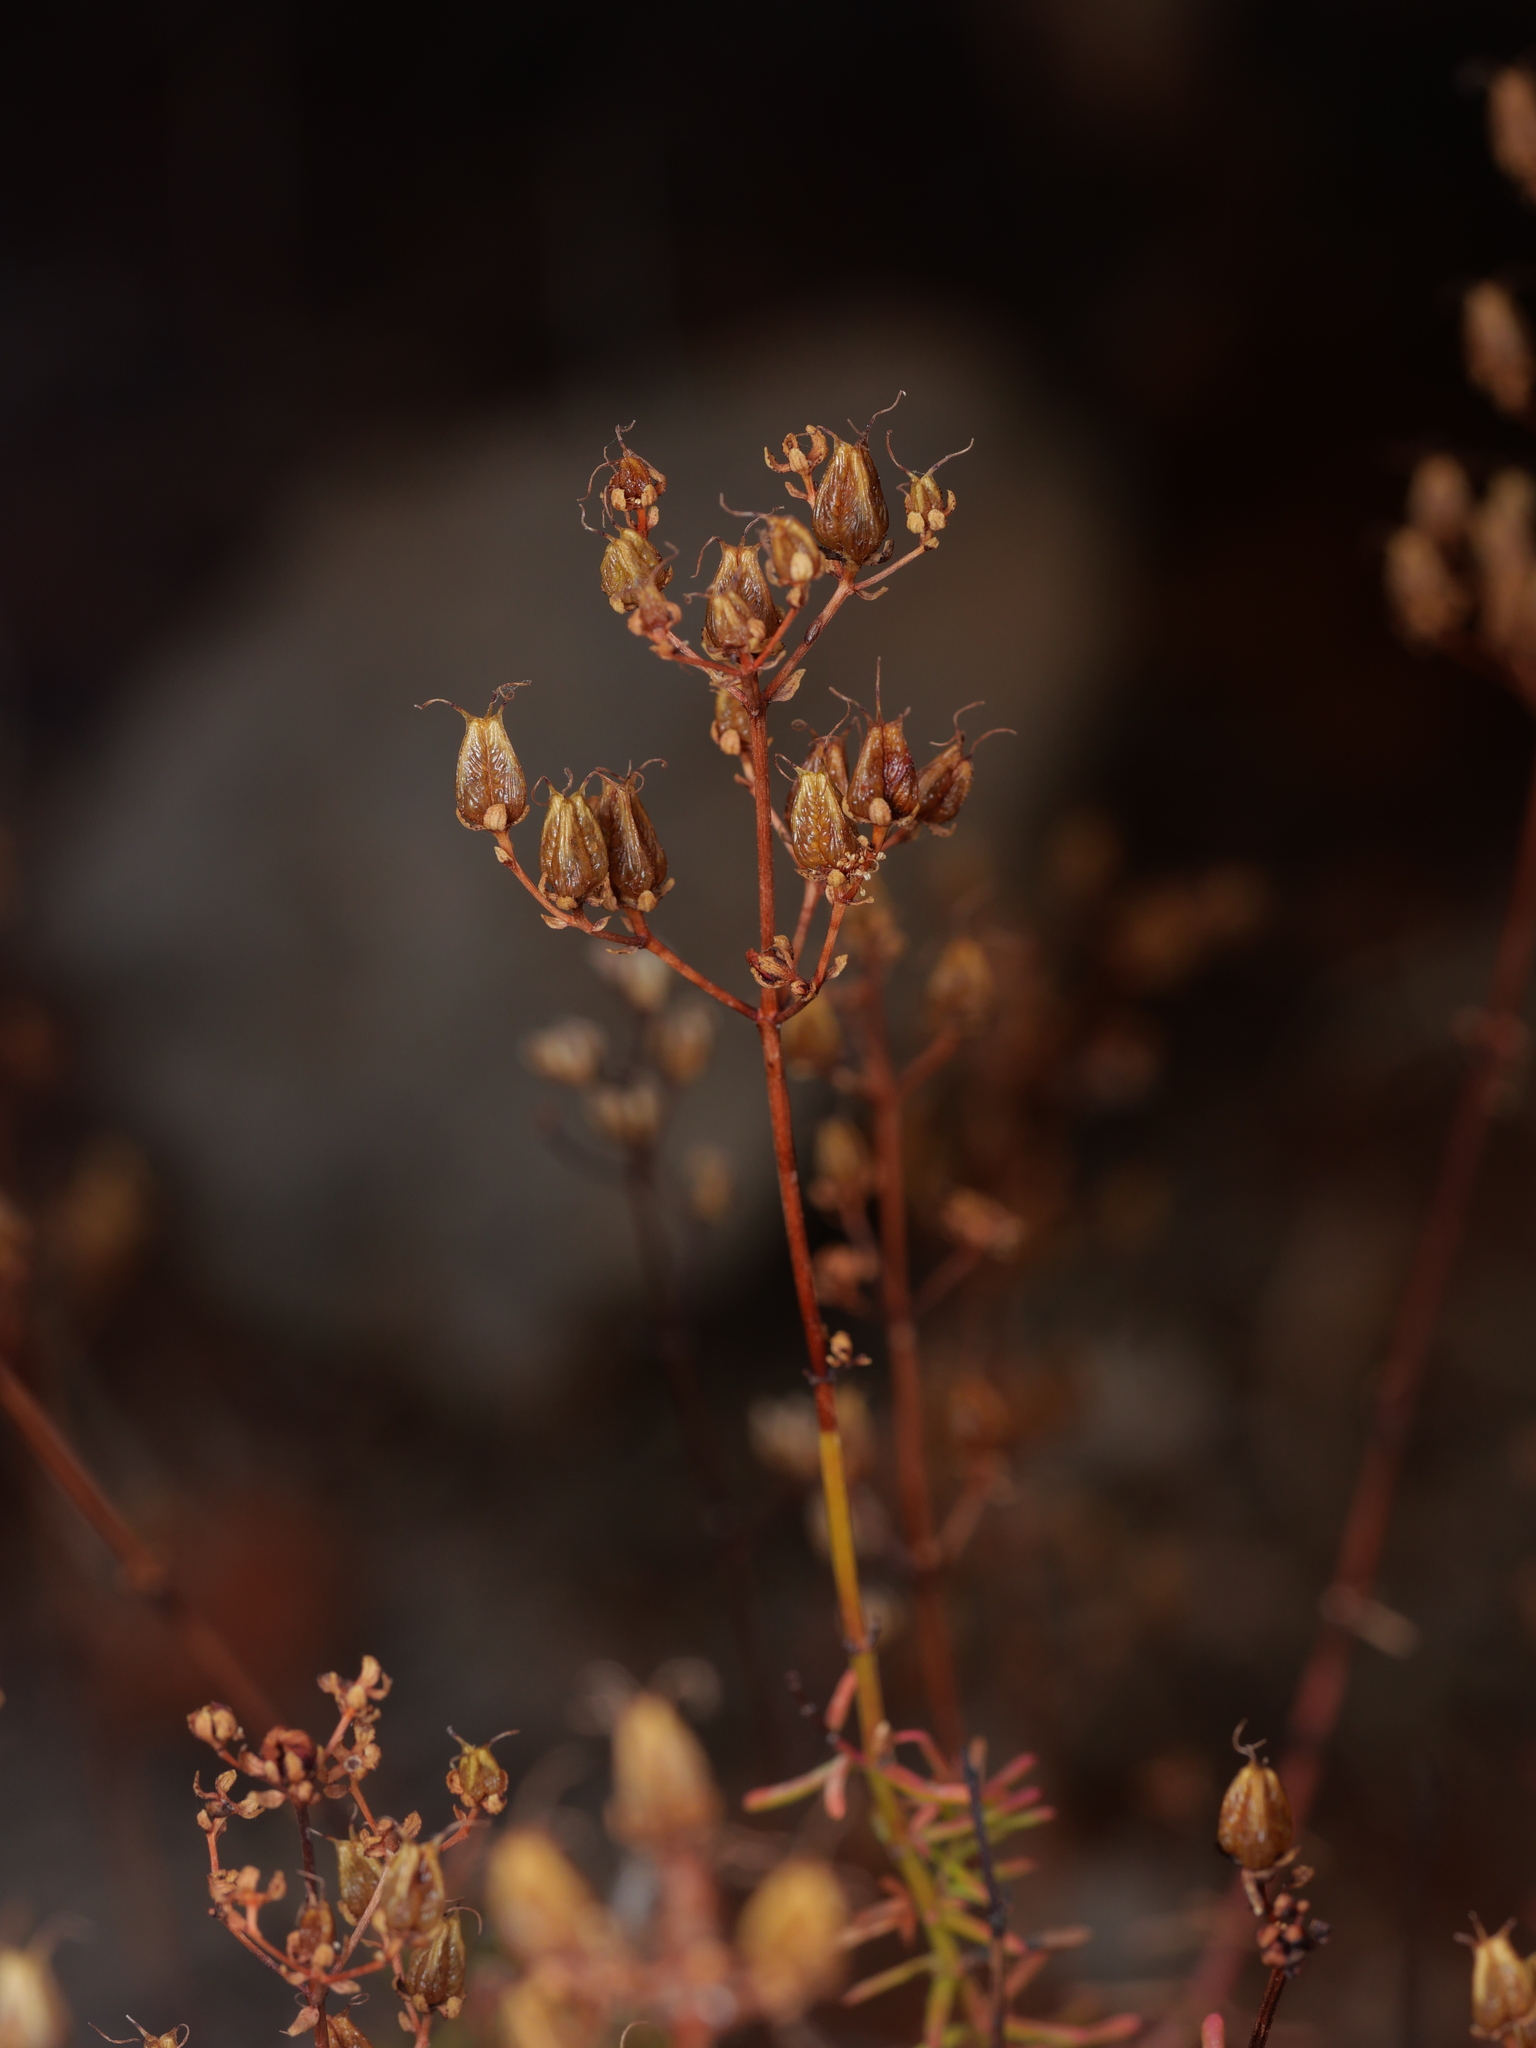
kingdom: Plantae
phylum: Tracheophyta
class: Magnoliopsida
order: Malpighiales
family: Hypericaceae
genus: Hypericum
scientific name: Hypericum empetrifolium
